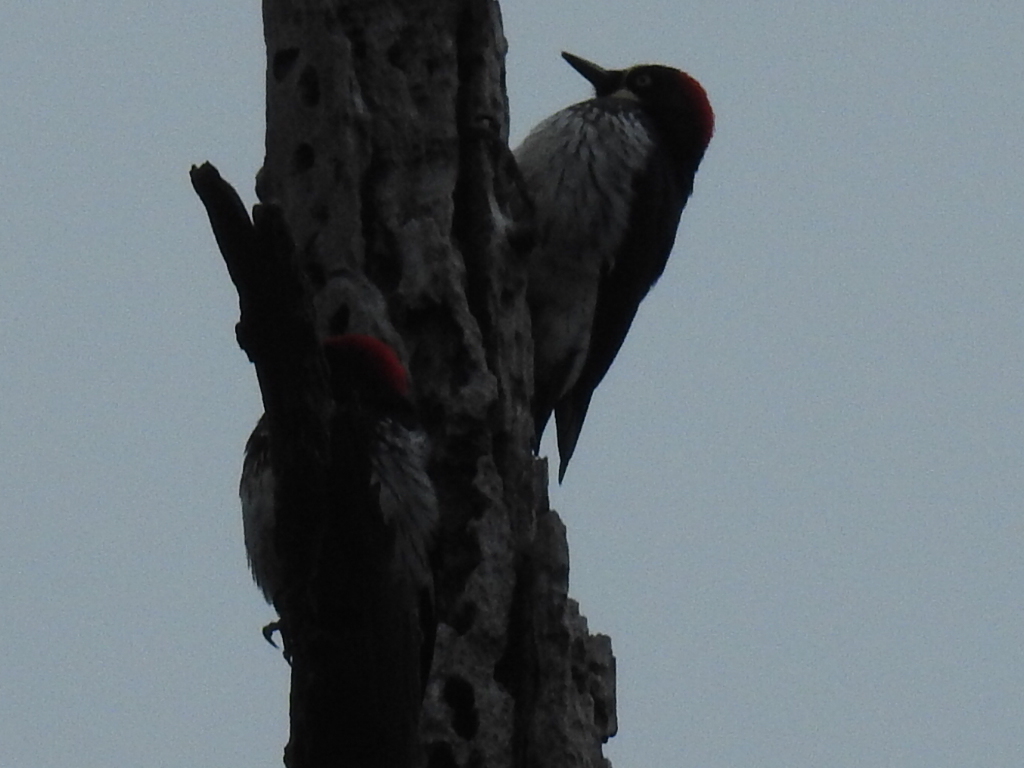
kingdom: Animalia
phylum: Chordata
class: Aves
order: Piciformes
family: Picidae
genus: Melanerpes
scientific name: Melanerpes formicivorus
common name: Acorn woodpecker
